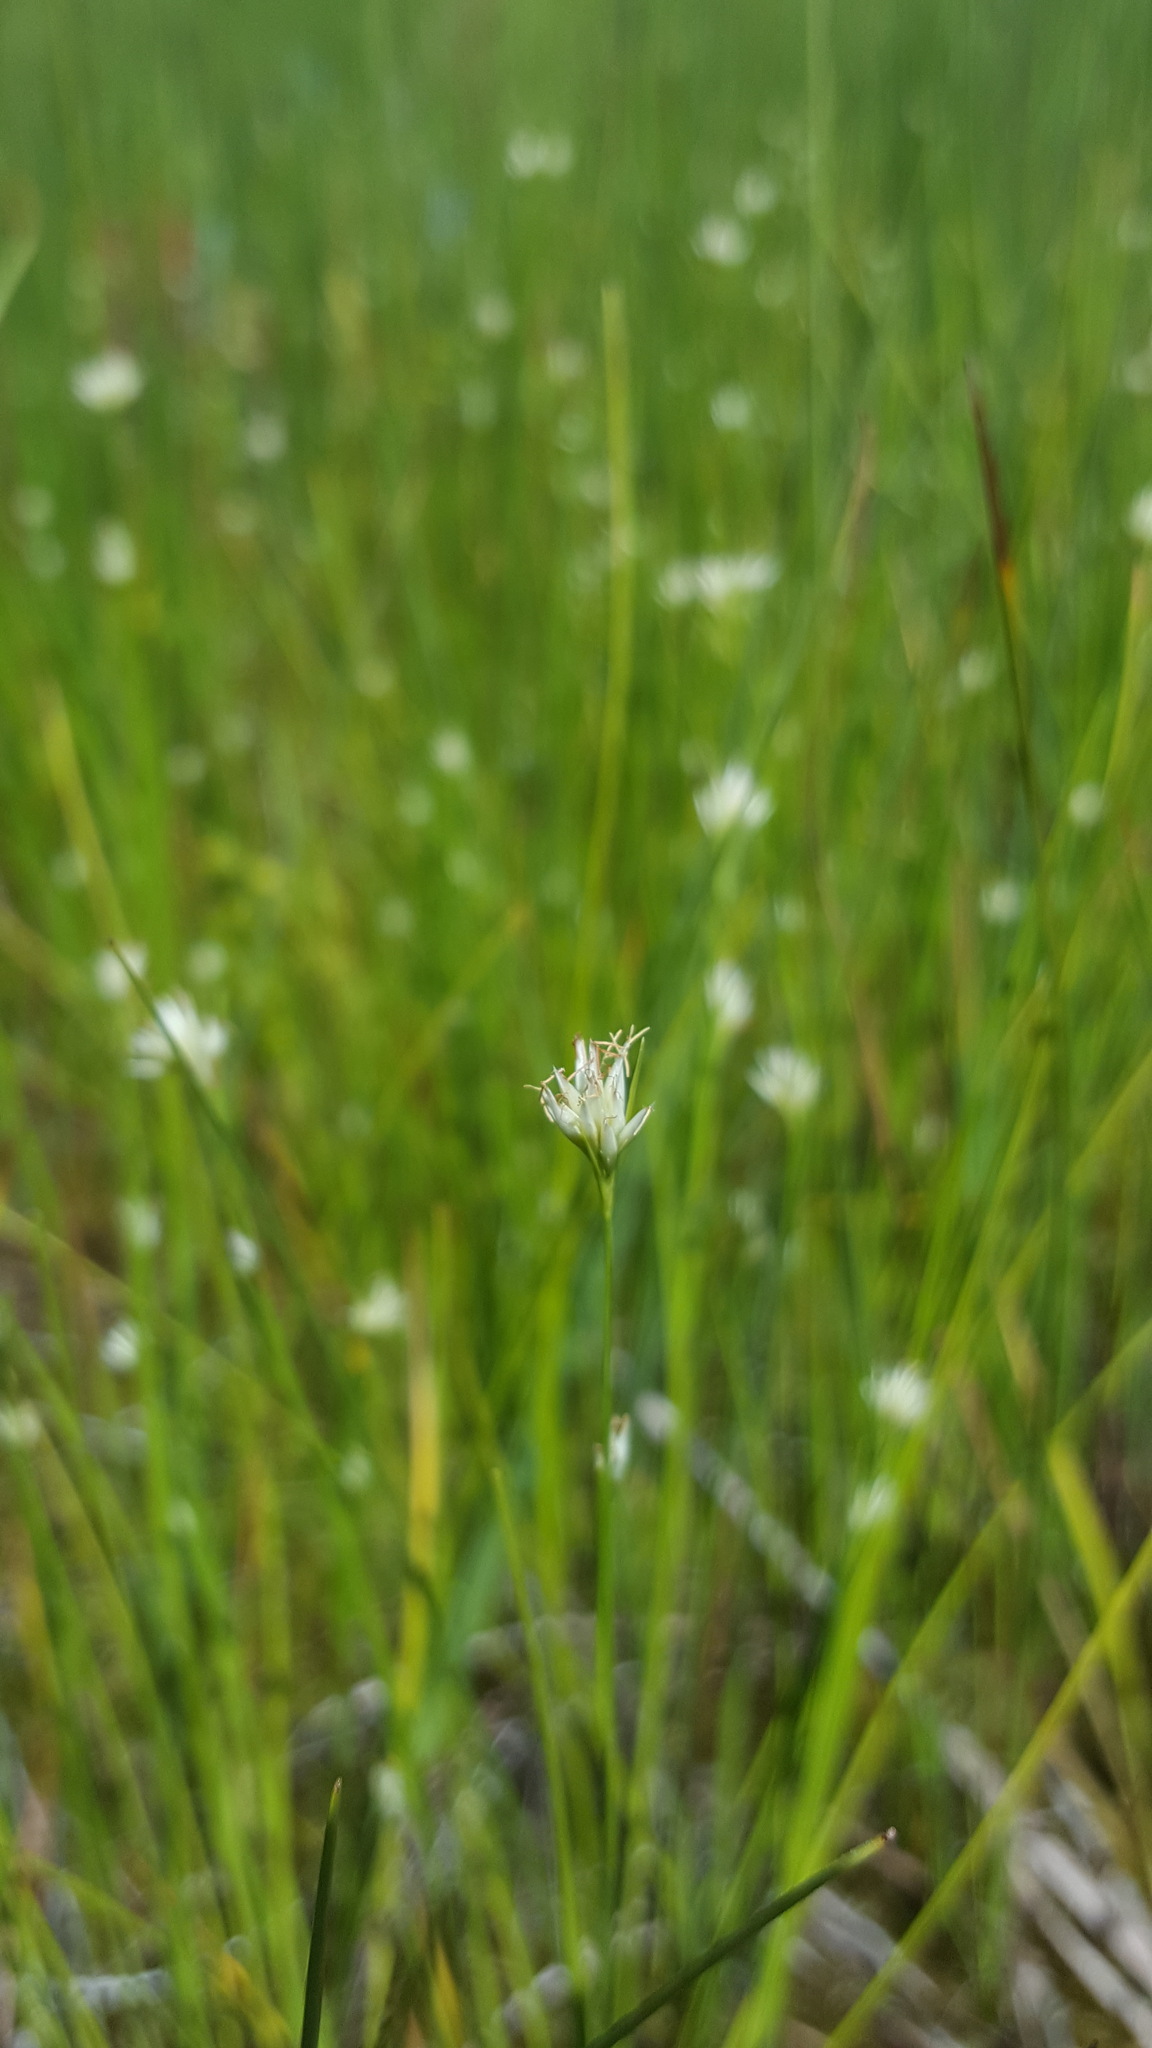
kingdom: Plantae
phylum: Tracheophyta
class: Liliopsida
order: Poales
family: Cyperaceae
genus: Rhynchospora
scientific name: Rhynchospora alba
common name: White beak-sedge
